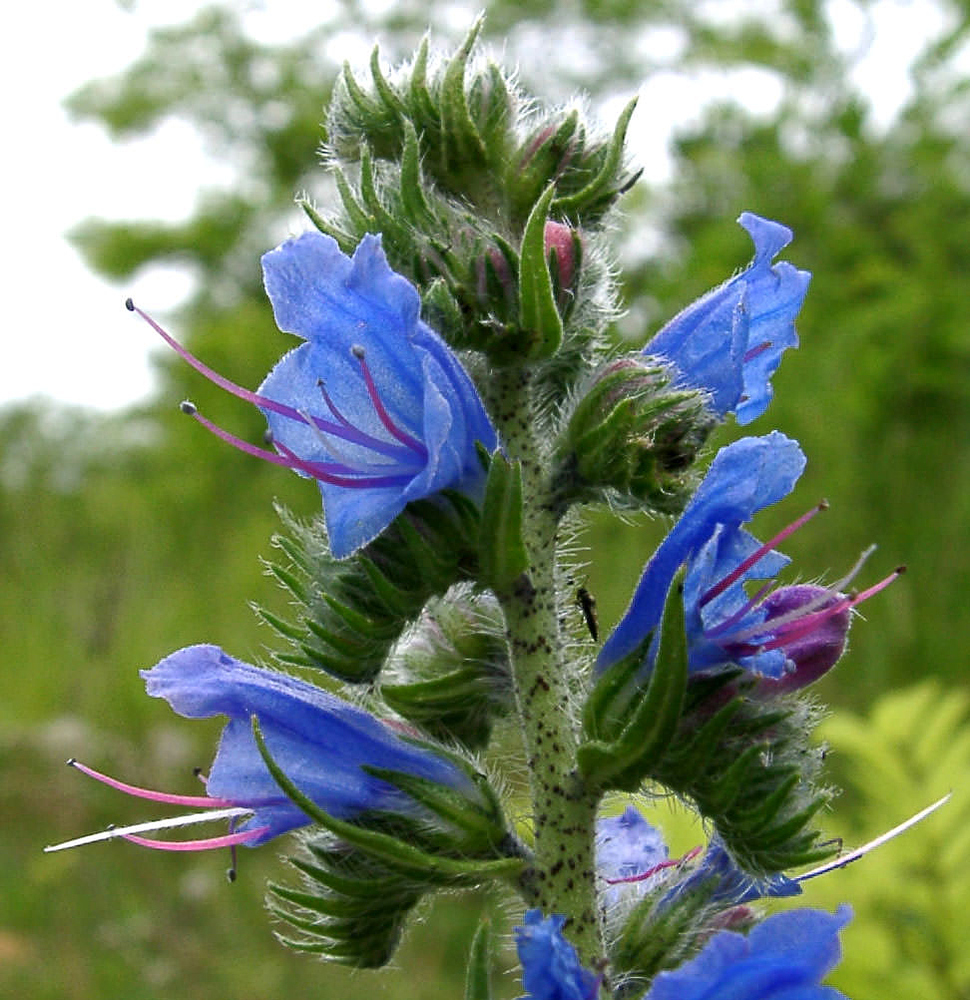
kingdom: Plantae
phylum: Tracheophyta
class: Magnoliopsida
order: Boraginales
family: Boraginaceae
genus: Echium
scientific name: Echium vulgare
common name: Common viper's bugloss
